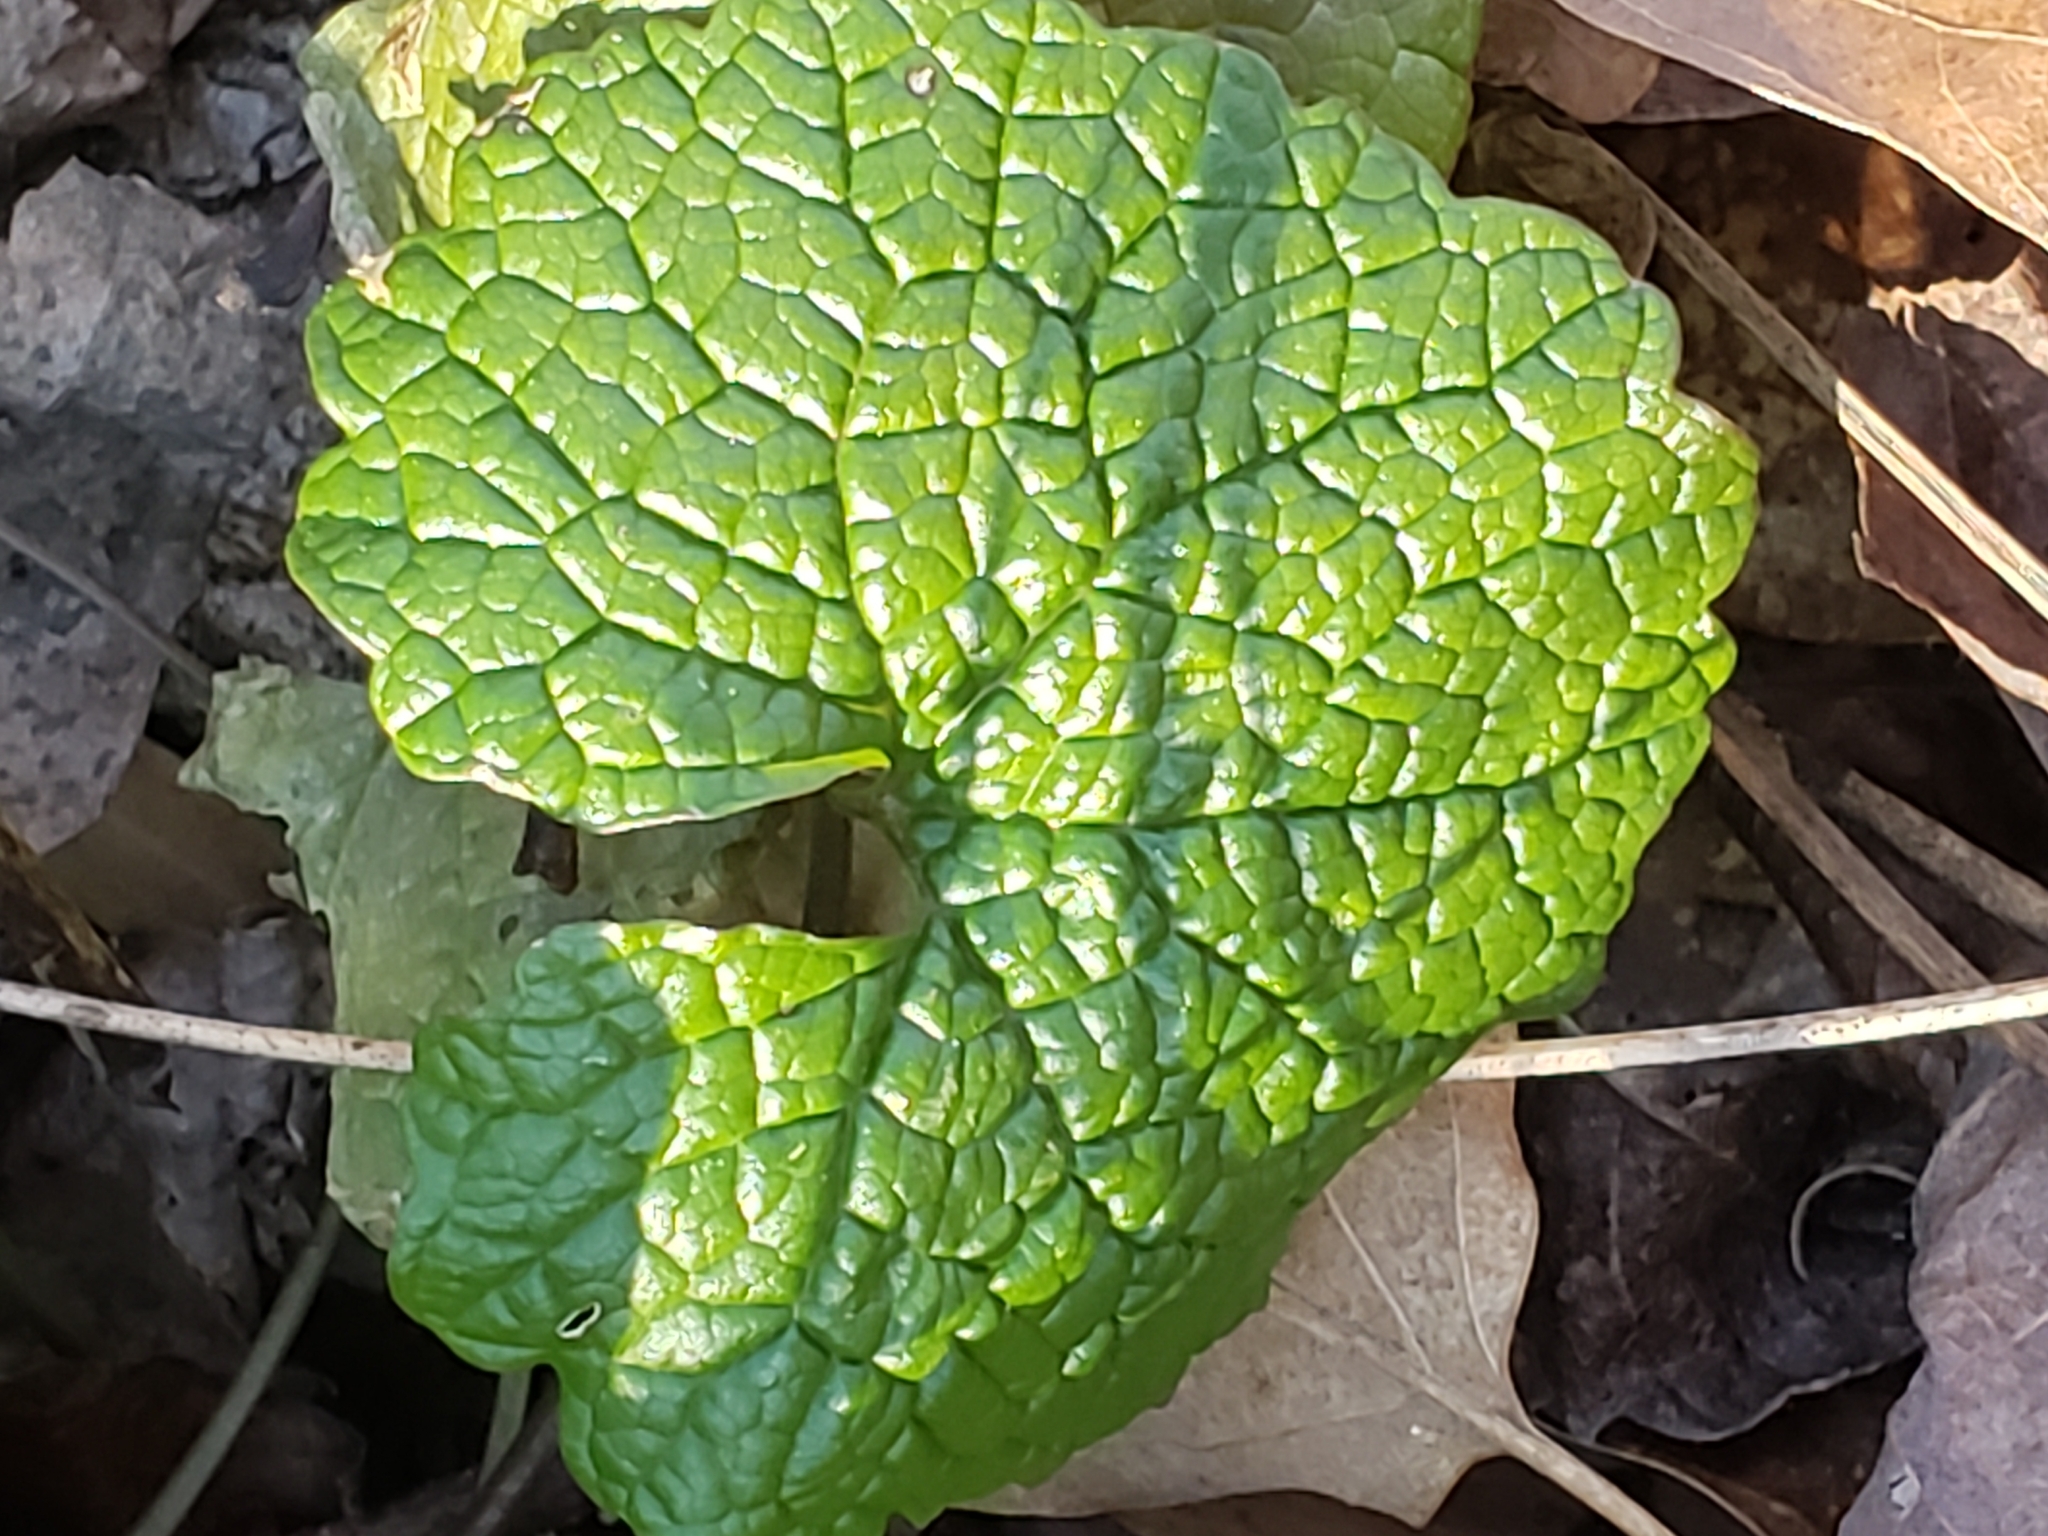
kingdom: Plantae
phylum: Tracheophyta
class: Magnoliopsida
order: Brassicales
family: Brassicaceae
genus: Alliaria
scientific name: Alliaria petiolata
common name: Garlic mustard
